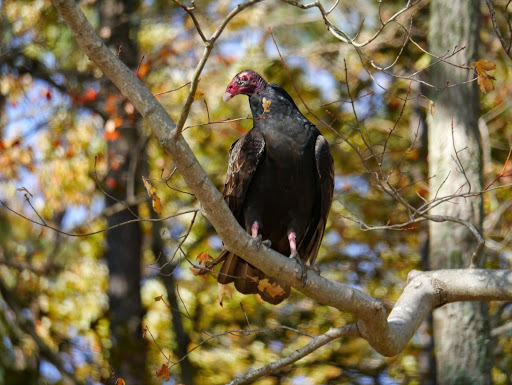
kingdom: Animalia
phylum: Chordata
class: Aves
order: Accipitriformes
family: Cathartidae
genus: Cathartes
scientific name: Cathartes aura
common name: Turkey vulture
